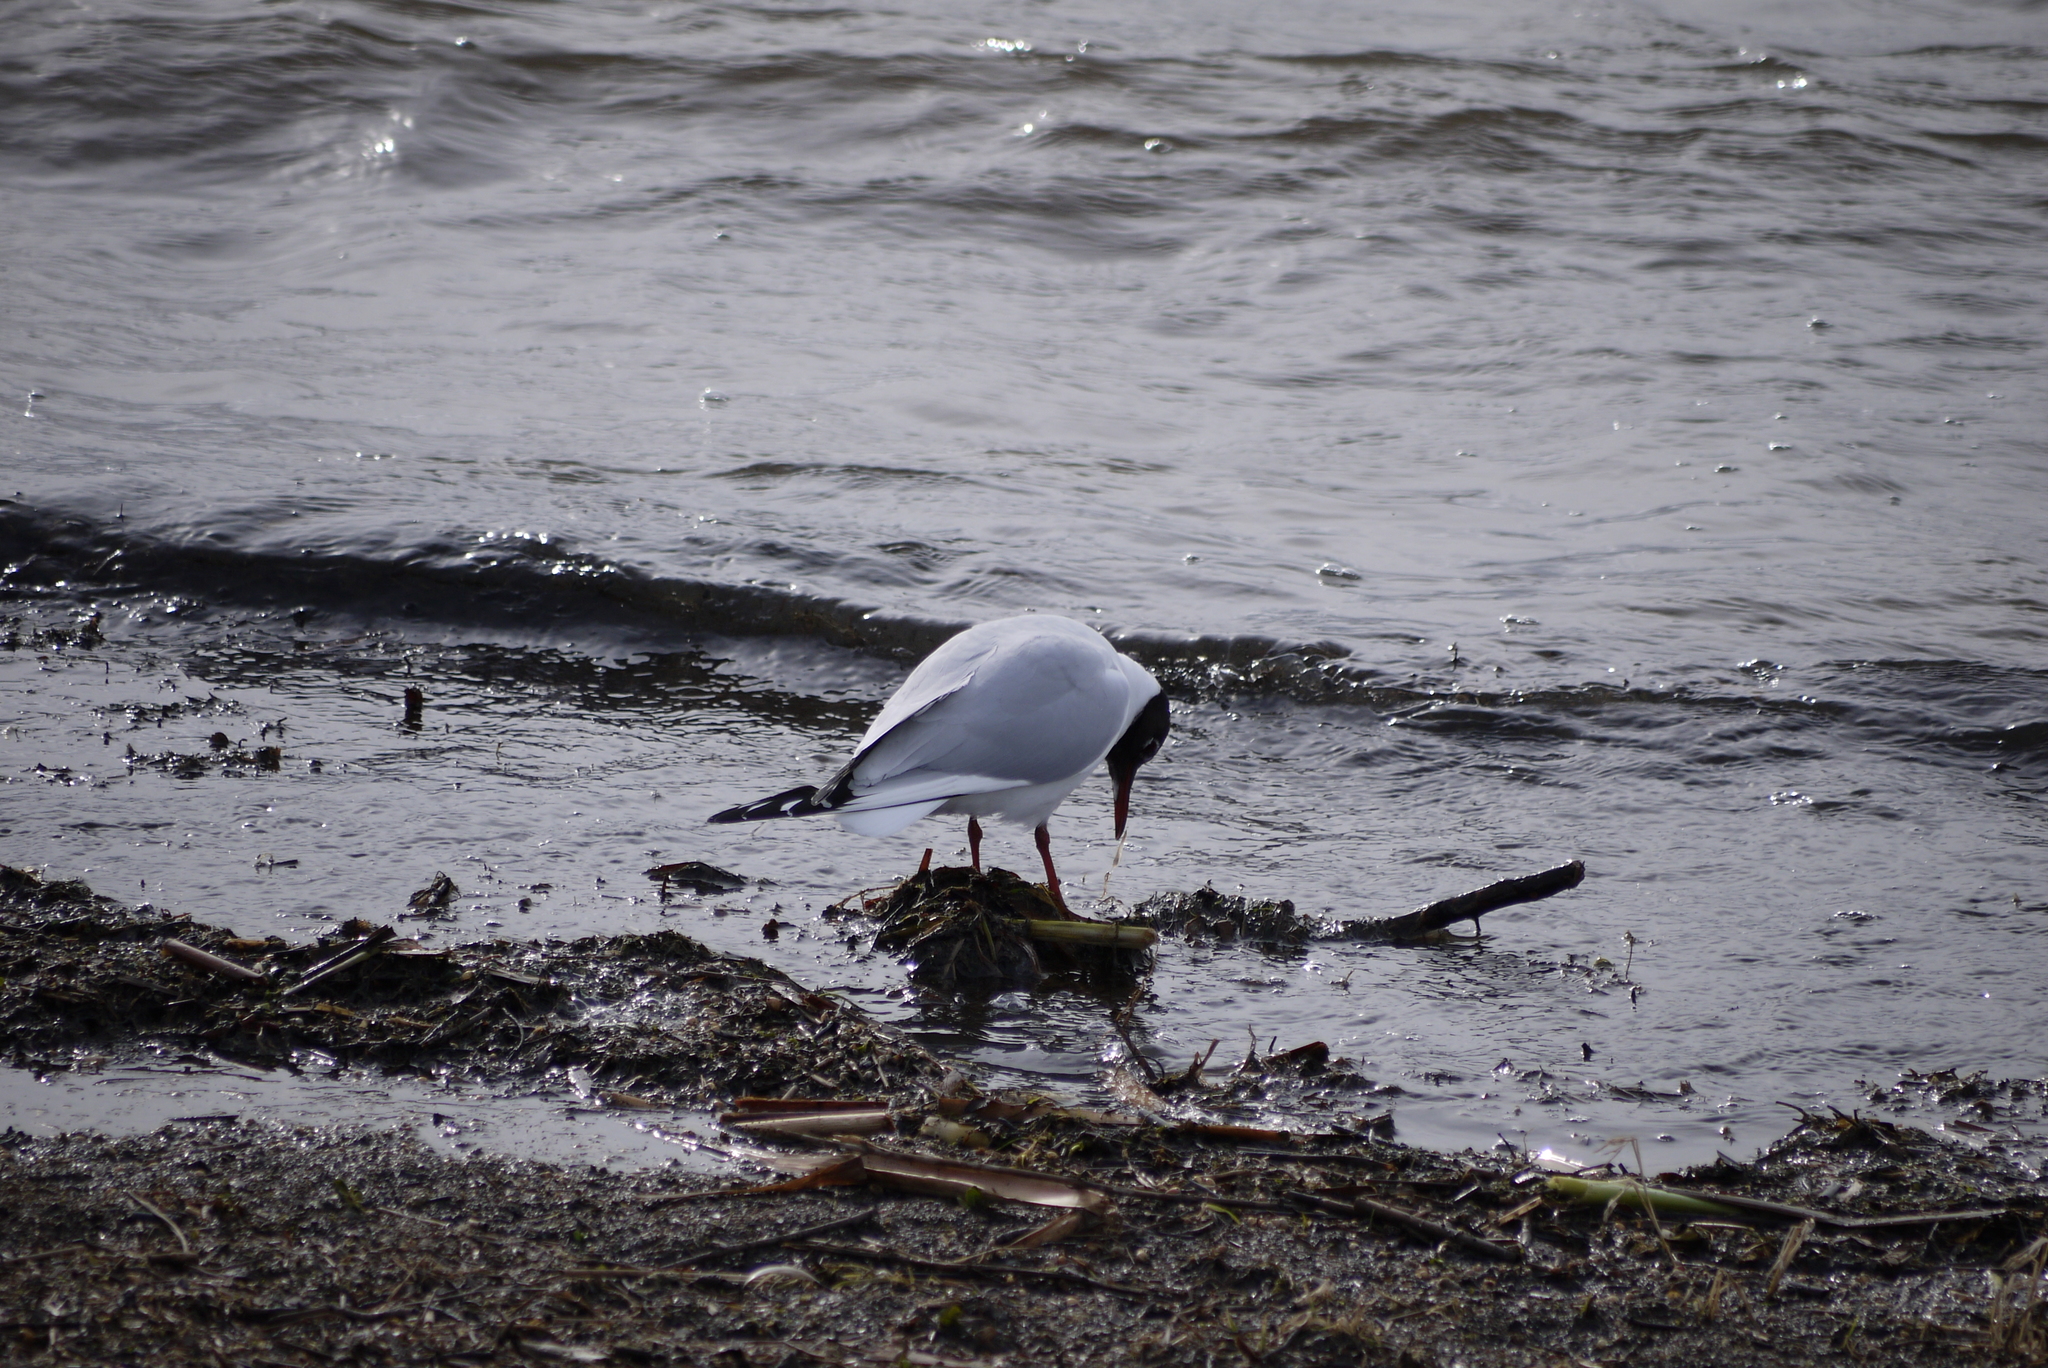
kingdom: Animalia
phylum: Chordata
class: Aves
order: Charadriiformes
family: Laridae
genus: Chroicocephalus
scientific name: Chroicocephalus ridibundus
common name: Black-headed gull
